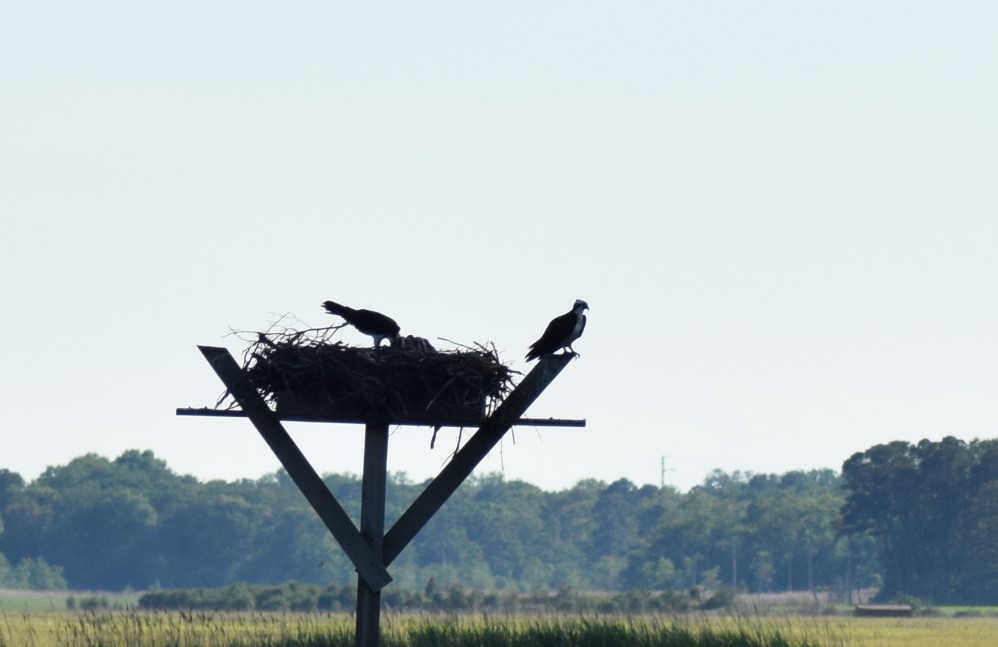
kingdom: Animalia
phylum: Chordata
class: Aves
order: Accipitriformes
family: Pandionidae
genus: Pandion
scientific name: Pandion haliaetus
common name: Osprey
